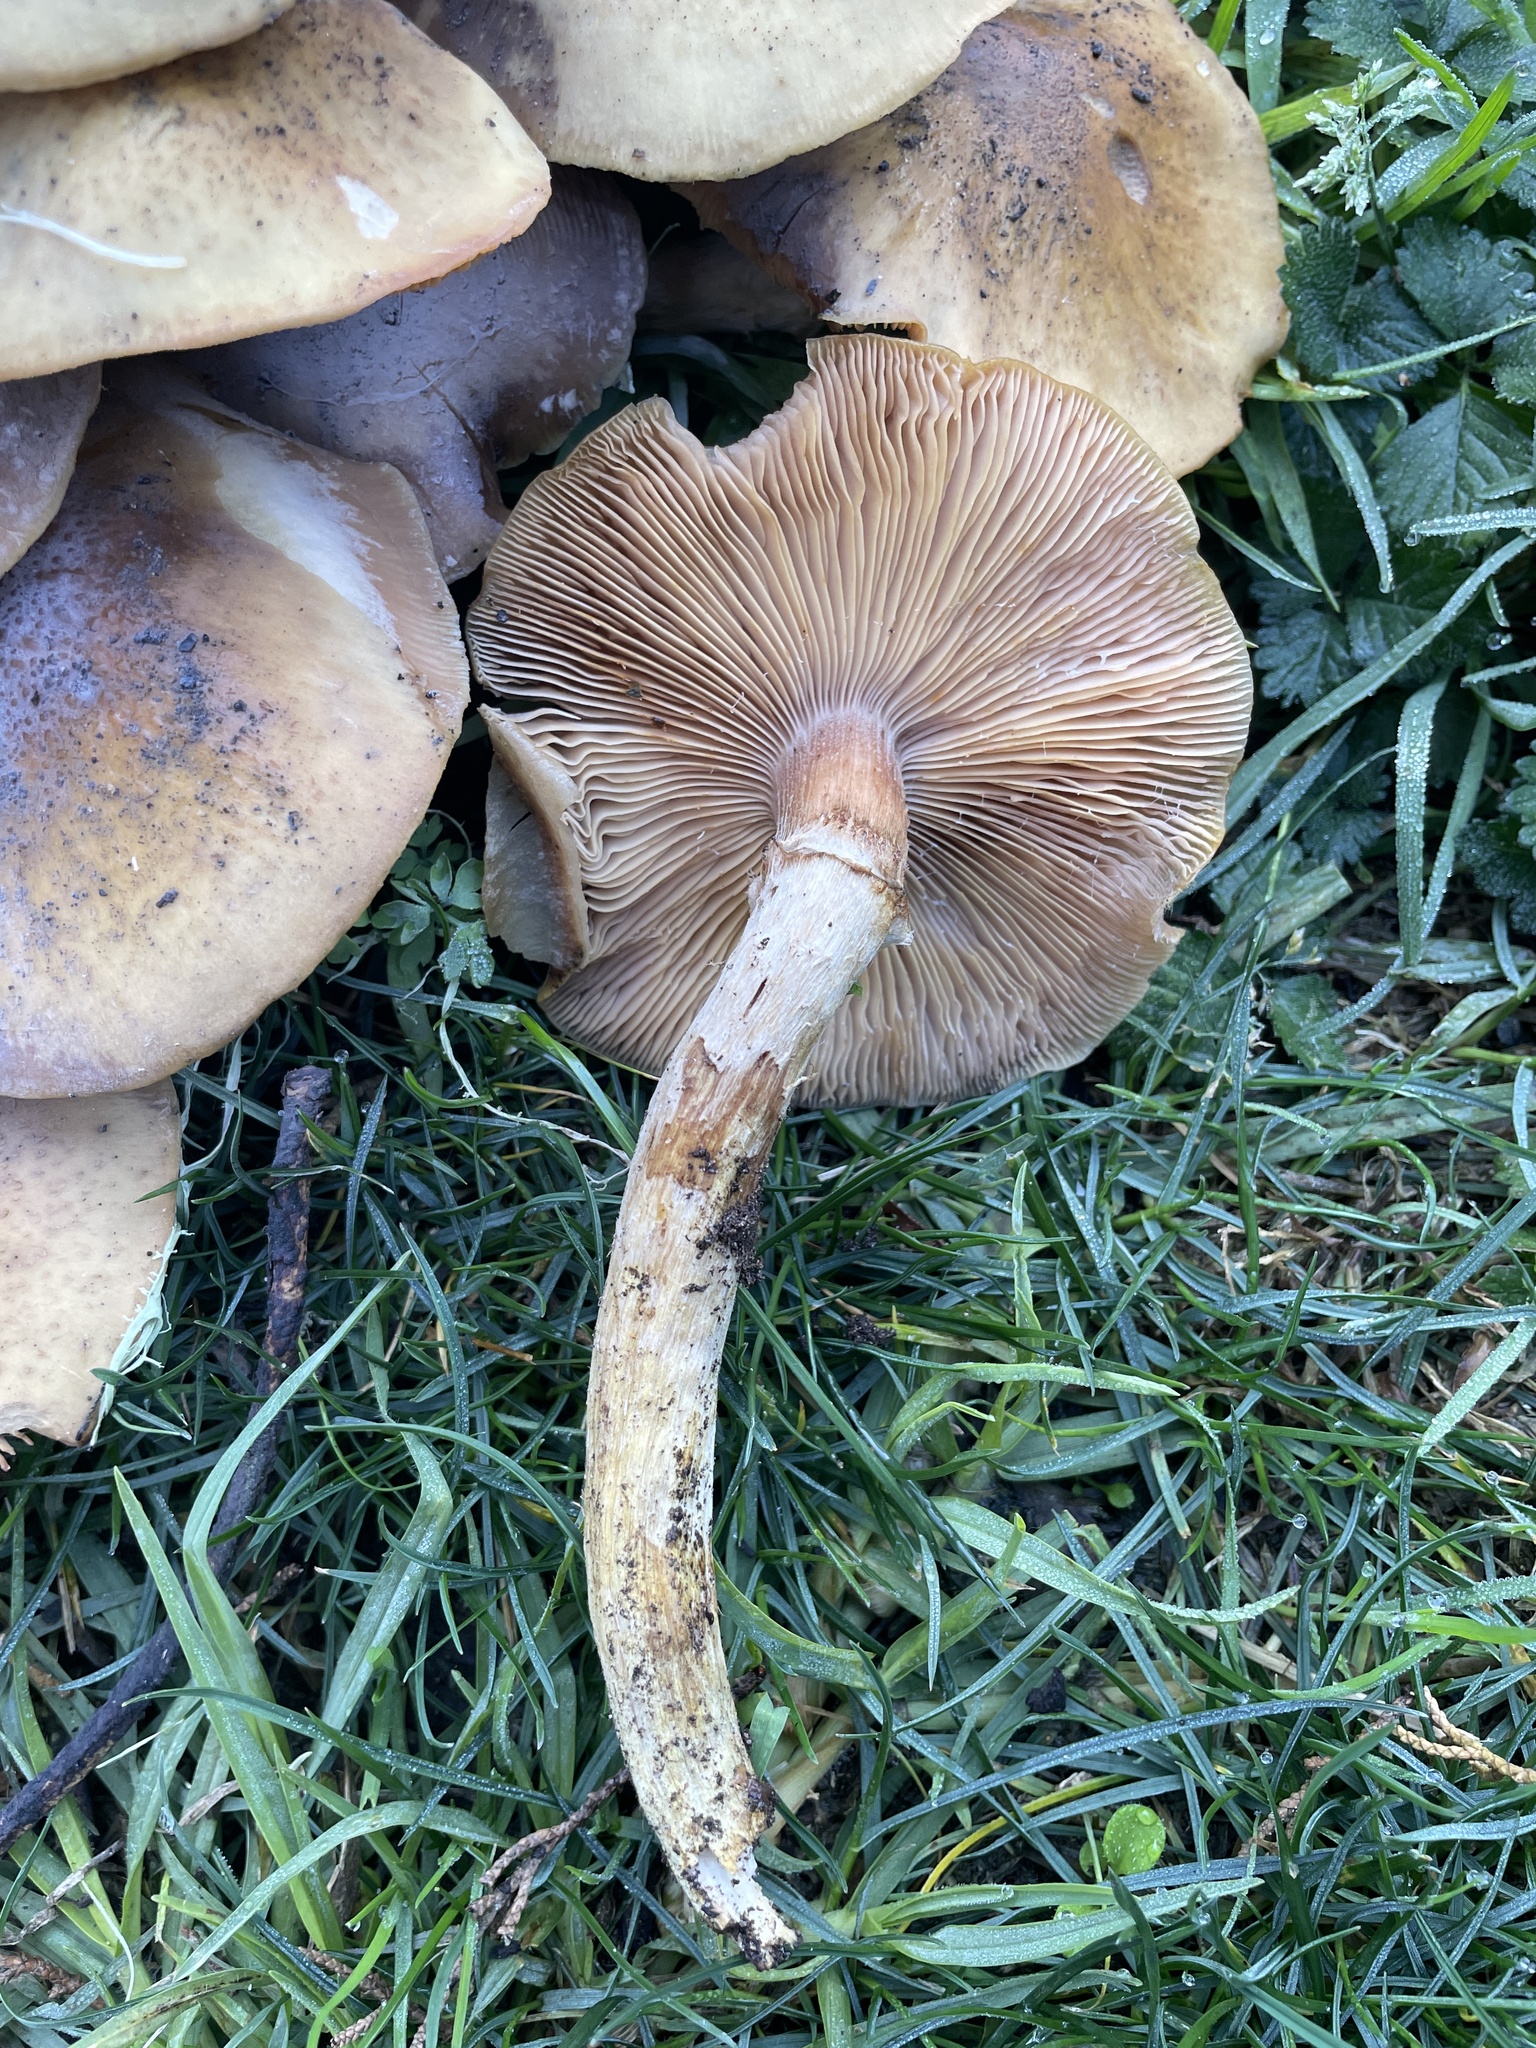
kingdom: Fungi
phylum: Basidiomycota
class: Agaricomycetes
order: Agaricales
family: Physalacriaceae
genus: Armillaria
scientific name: Armillaria mellea
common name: Honey fungus
